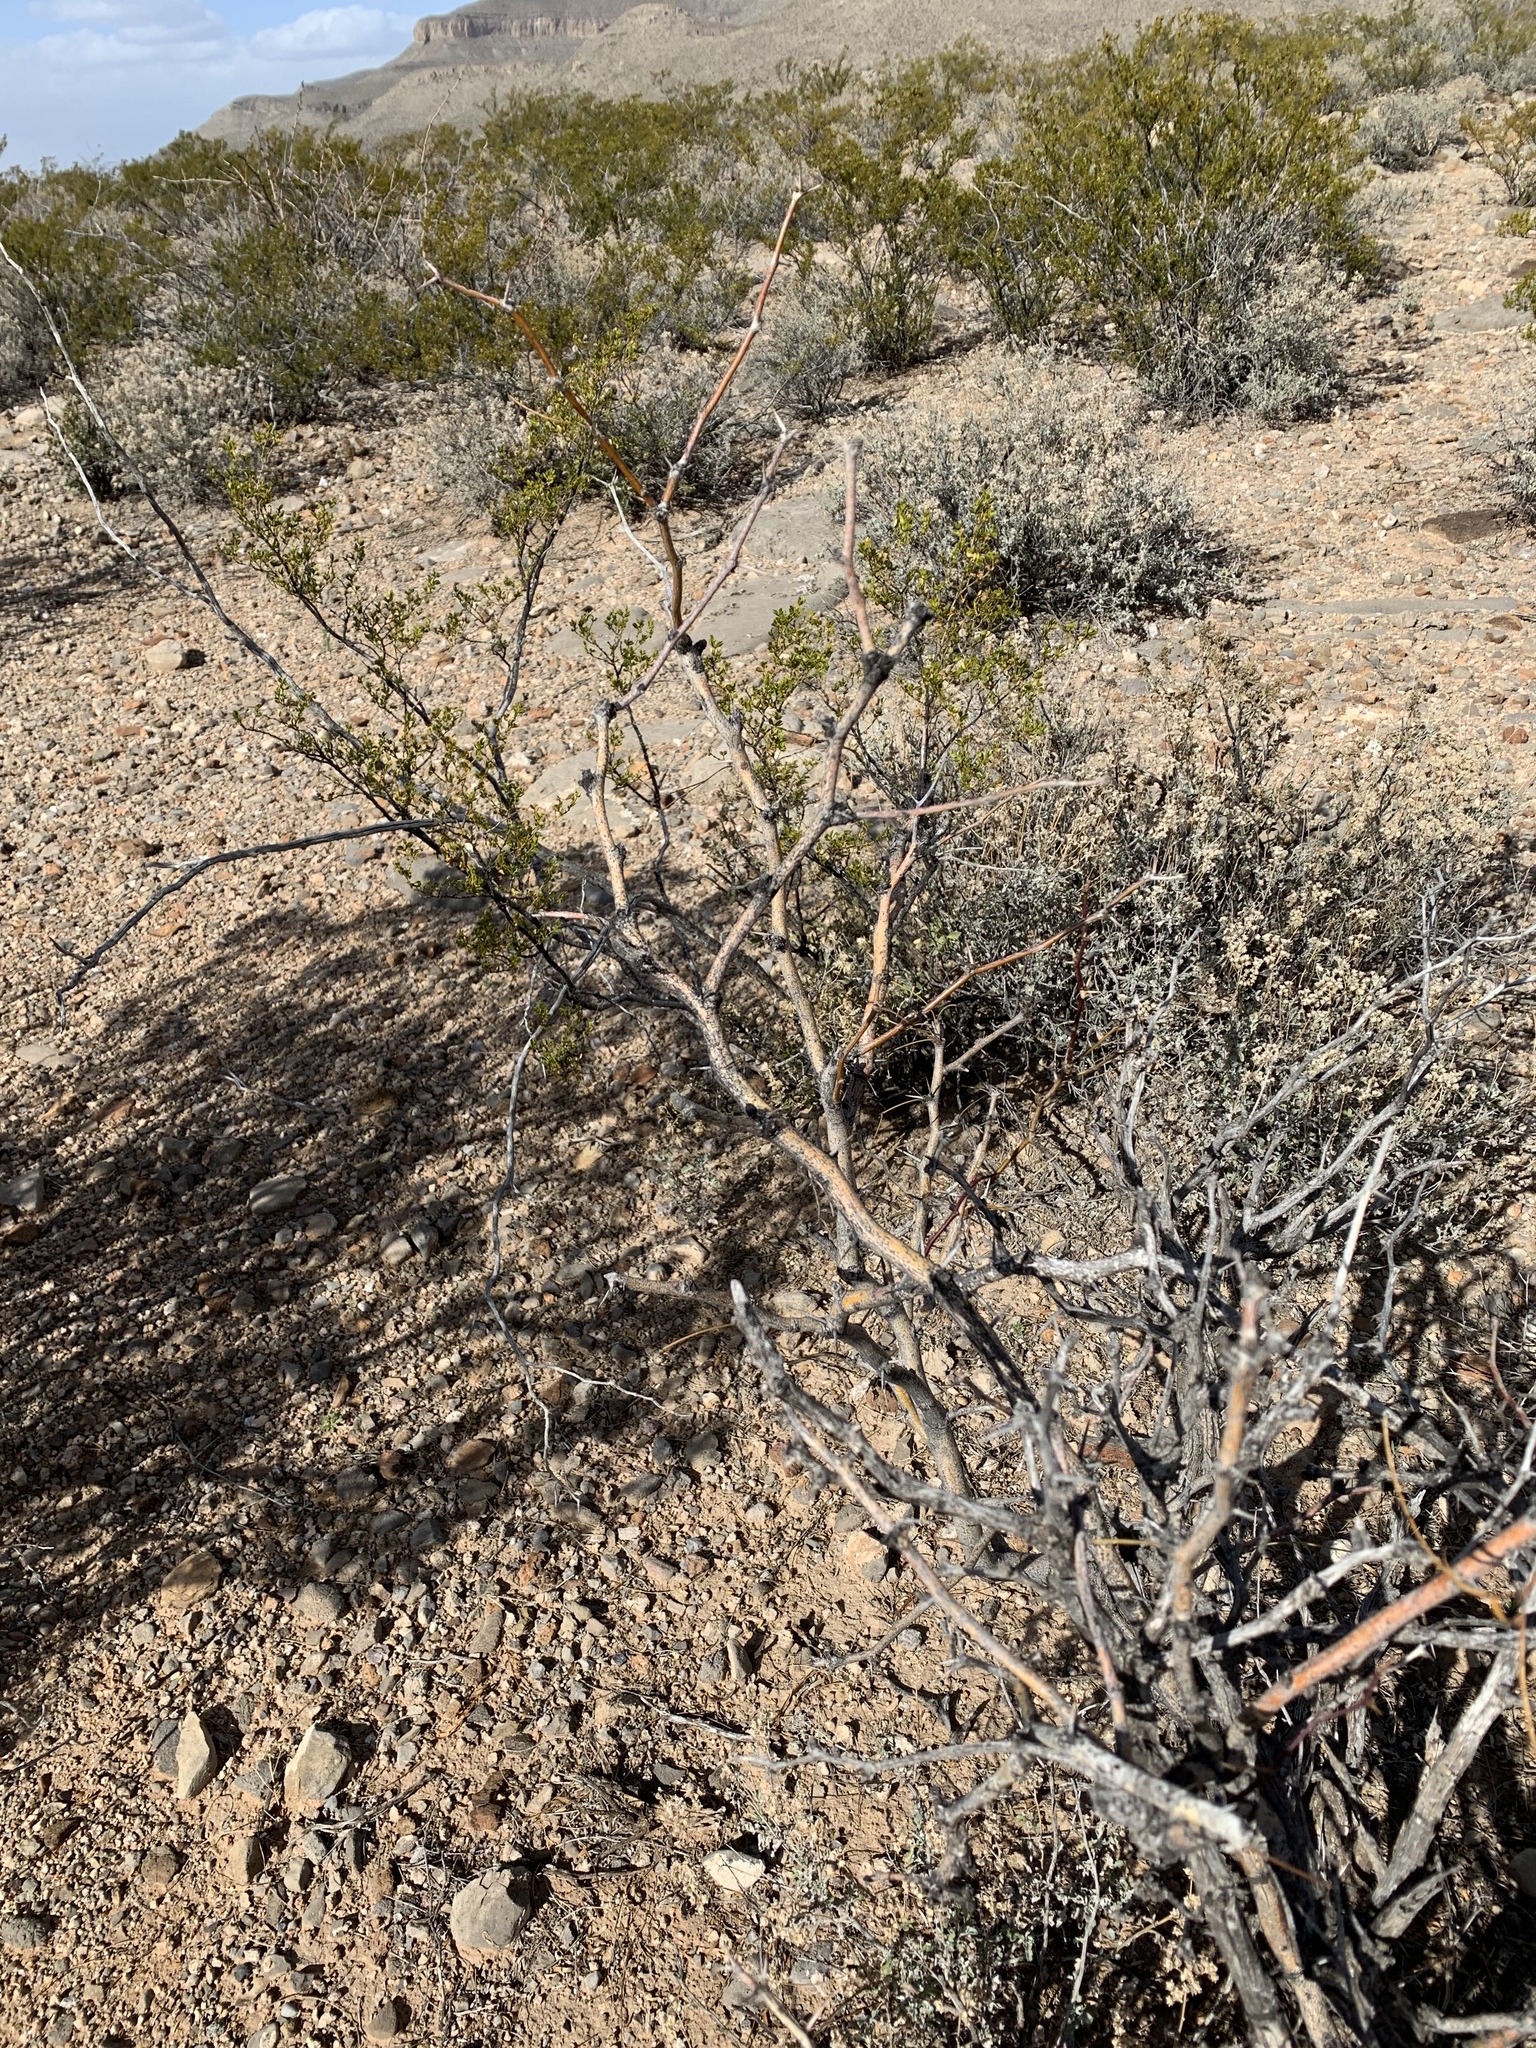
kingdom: Plantae
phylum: Tracheophyta
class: Magnoliopsida
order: Fabales
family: Fabaceae
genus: Prosopis
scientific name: Prosopis glandulosa
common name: Honey mesquite
